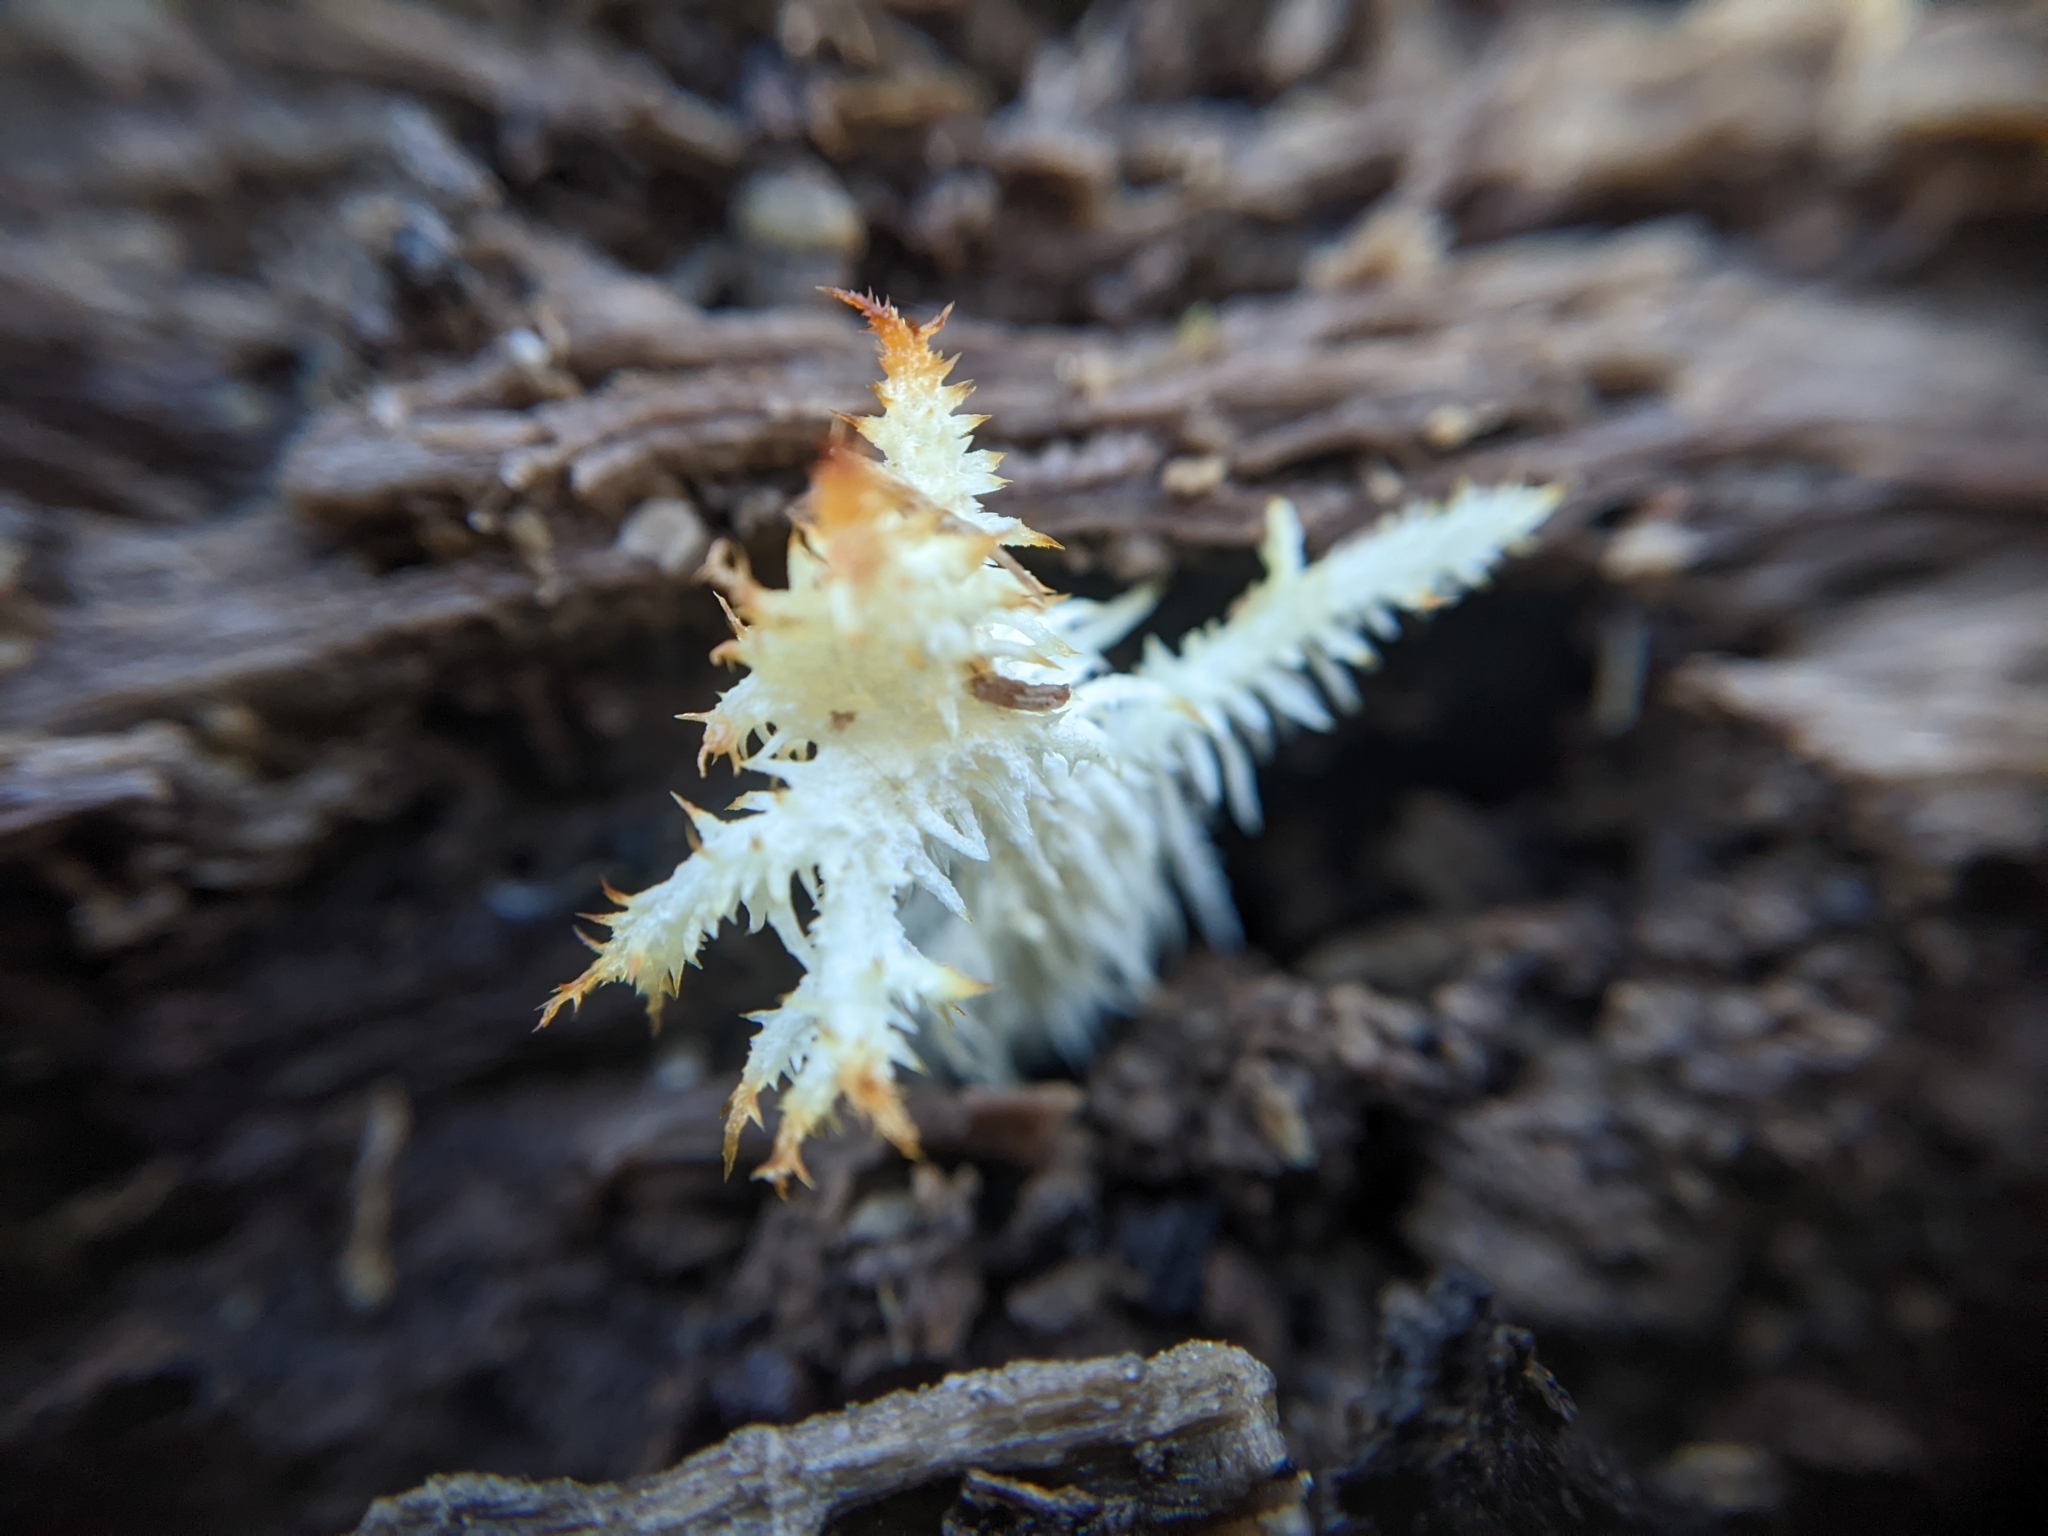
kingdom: Fungi
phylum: Basidiomycota
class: Agaricomycetes
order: Russulales
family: Hericiaceae
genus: Hericium
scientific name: Hericium coralloides
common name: Coral tooth
